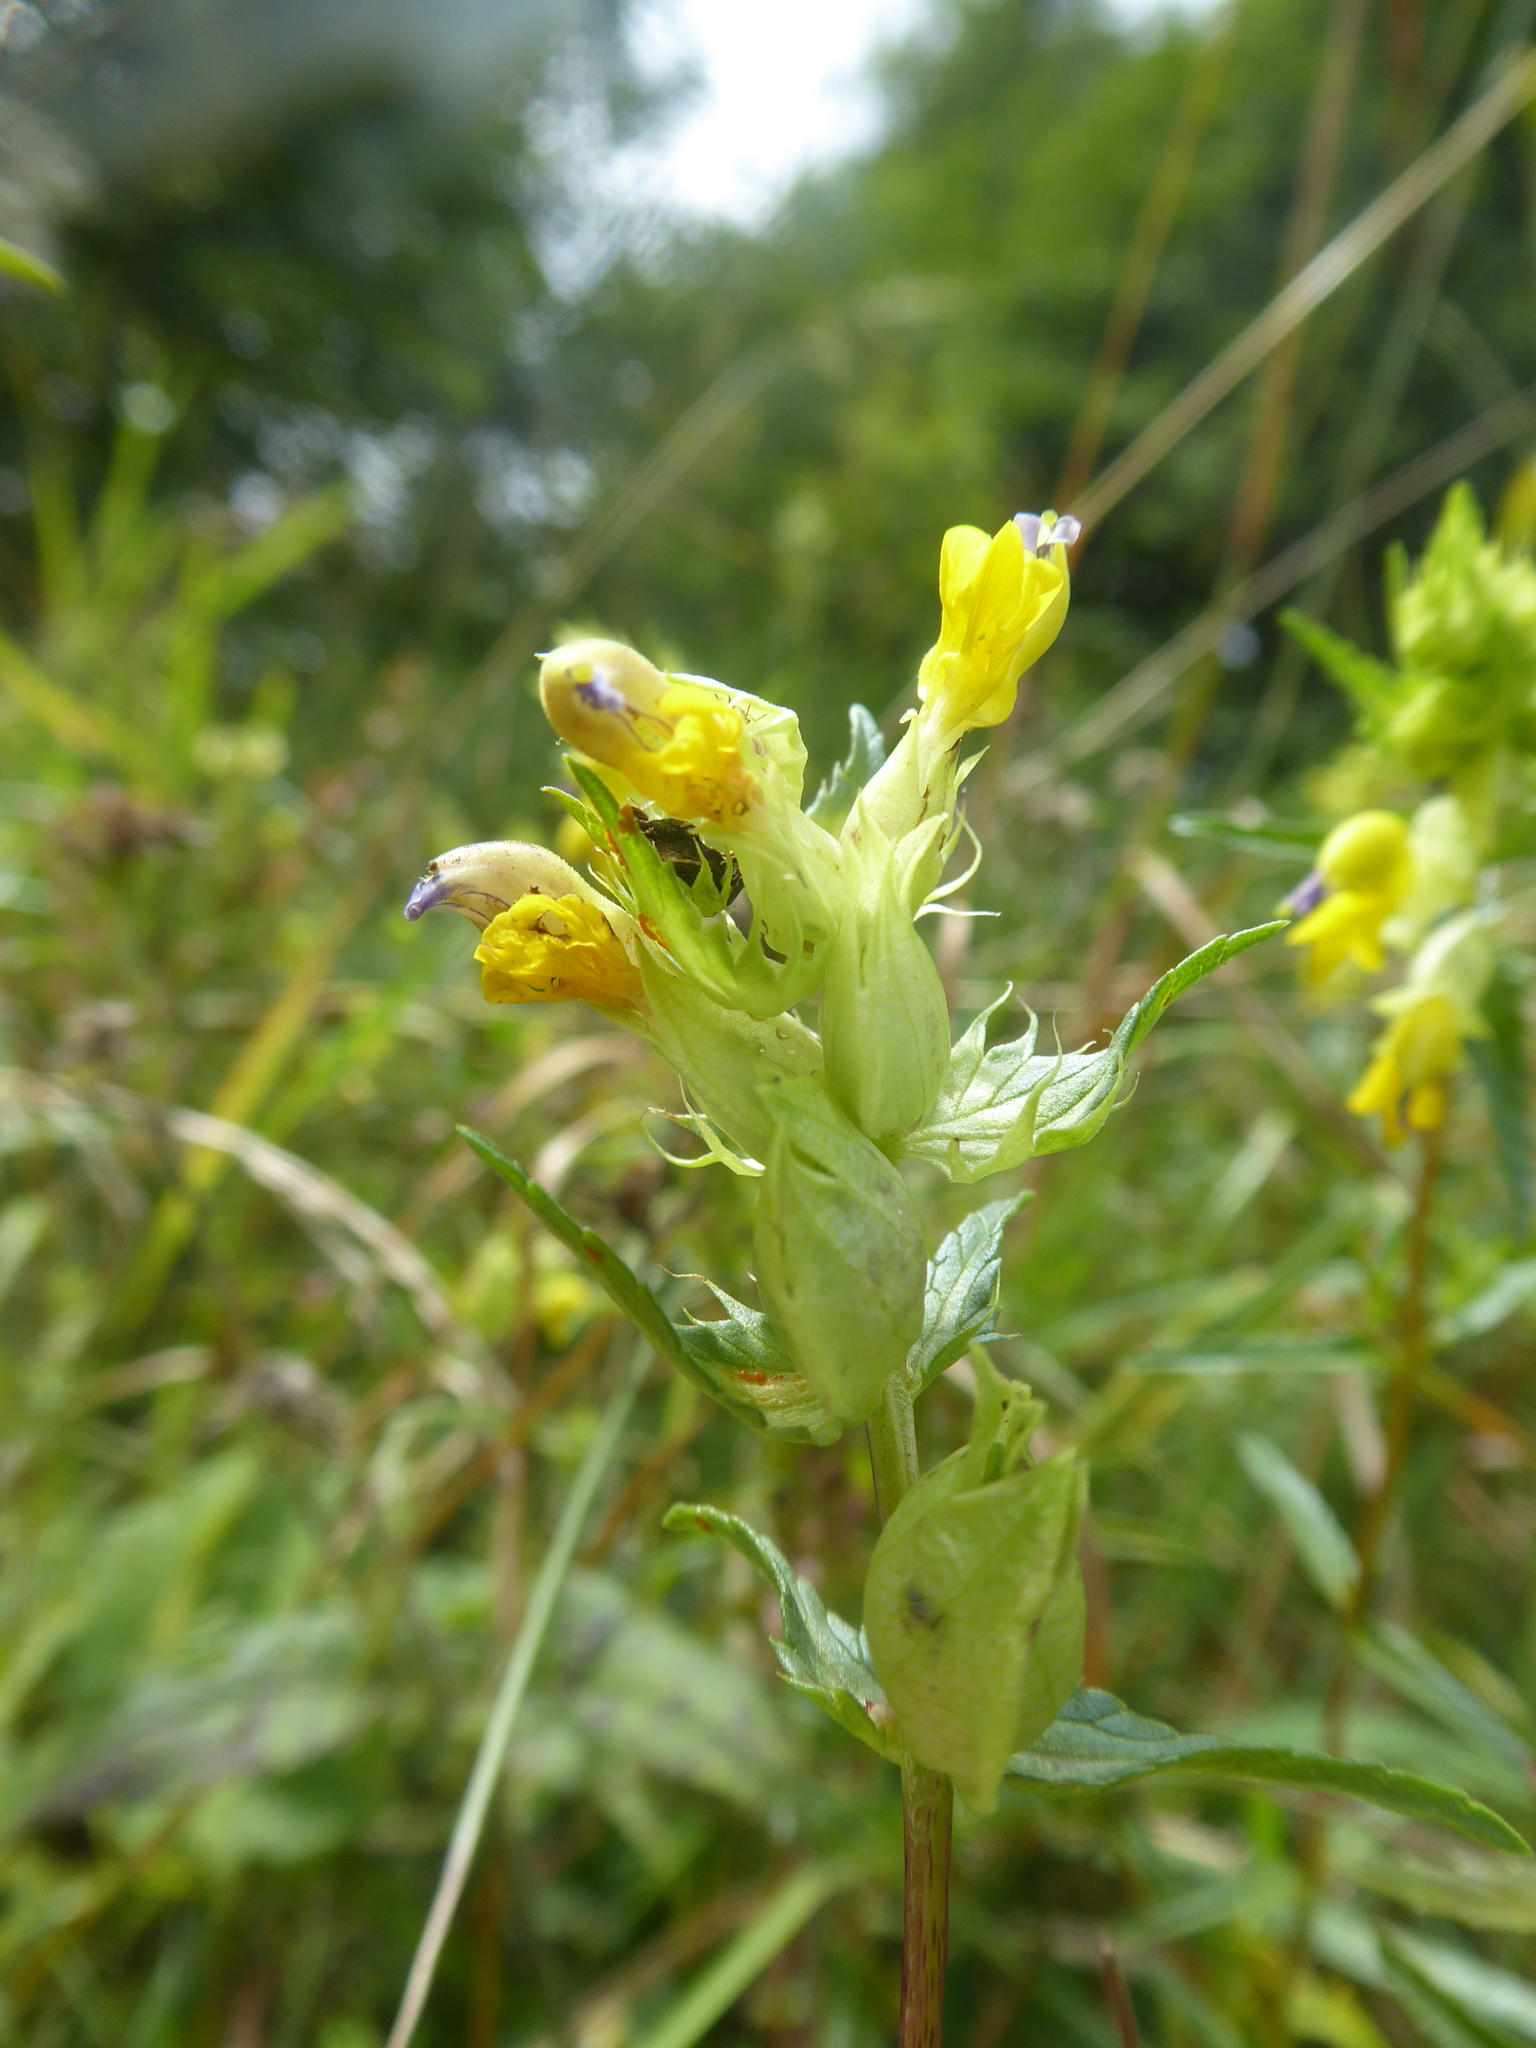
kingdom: Plantae
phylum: Tracheophyta
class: Magnoliopsida
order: Lamiales
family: Orobanchaceae
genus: Rhinanthus
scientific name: Rhinanthus glacialis
